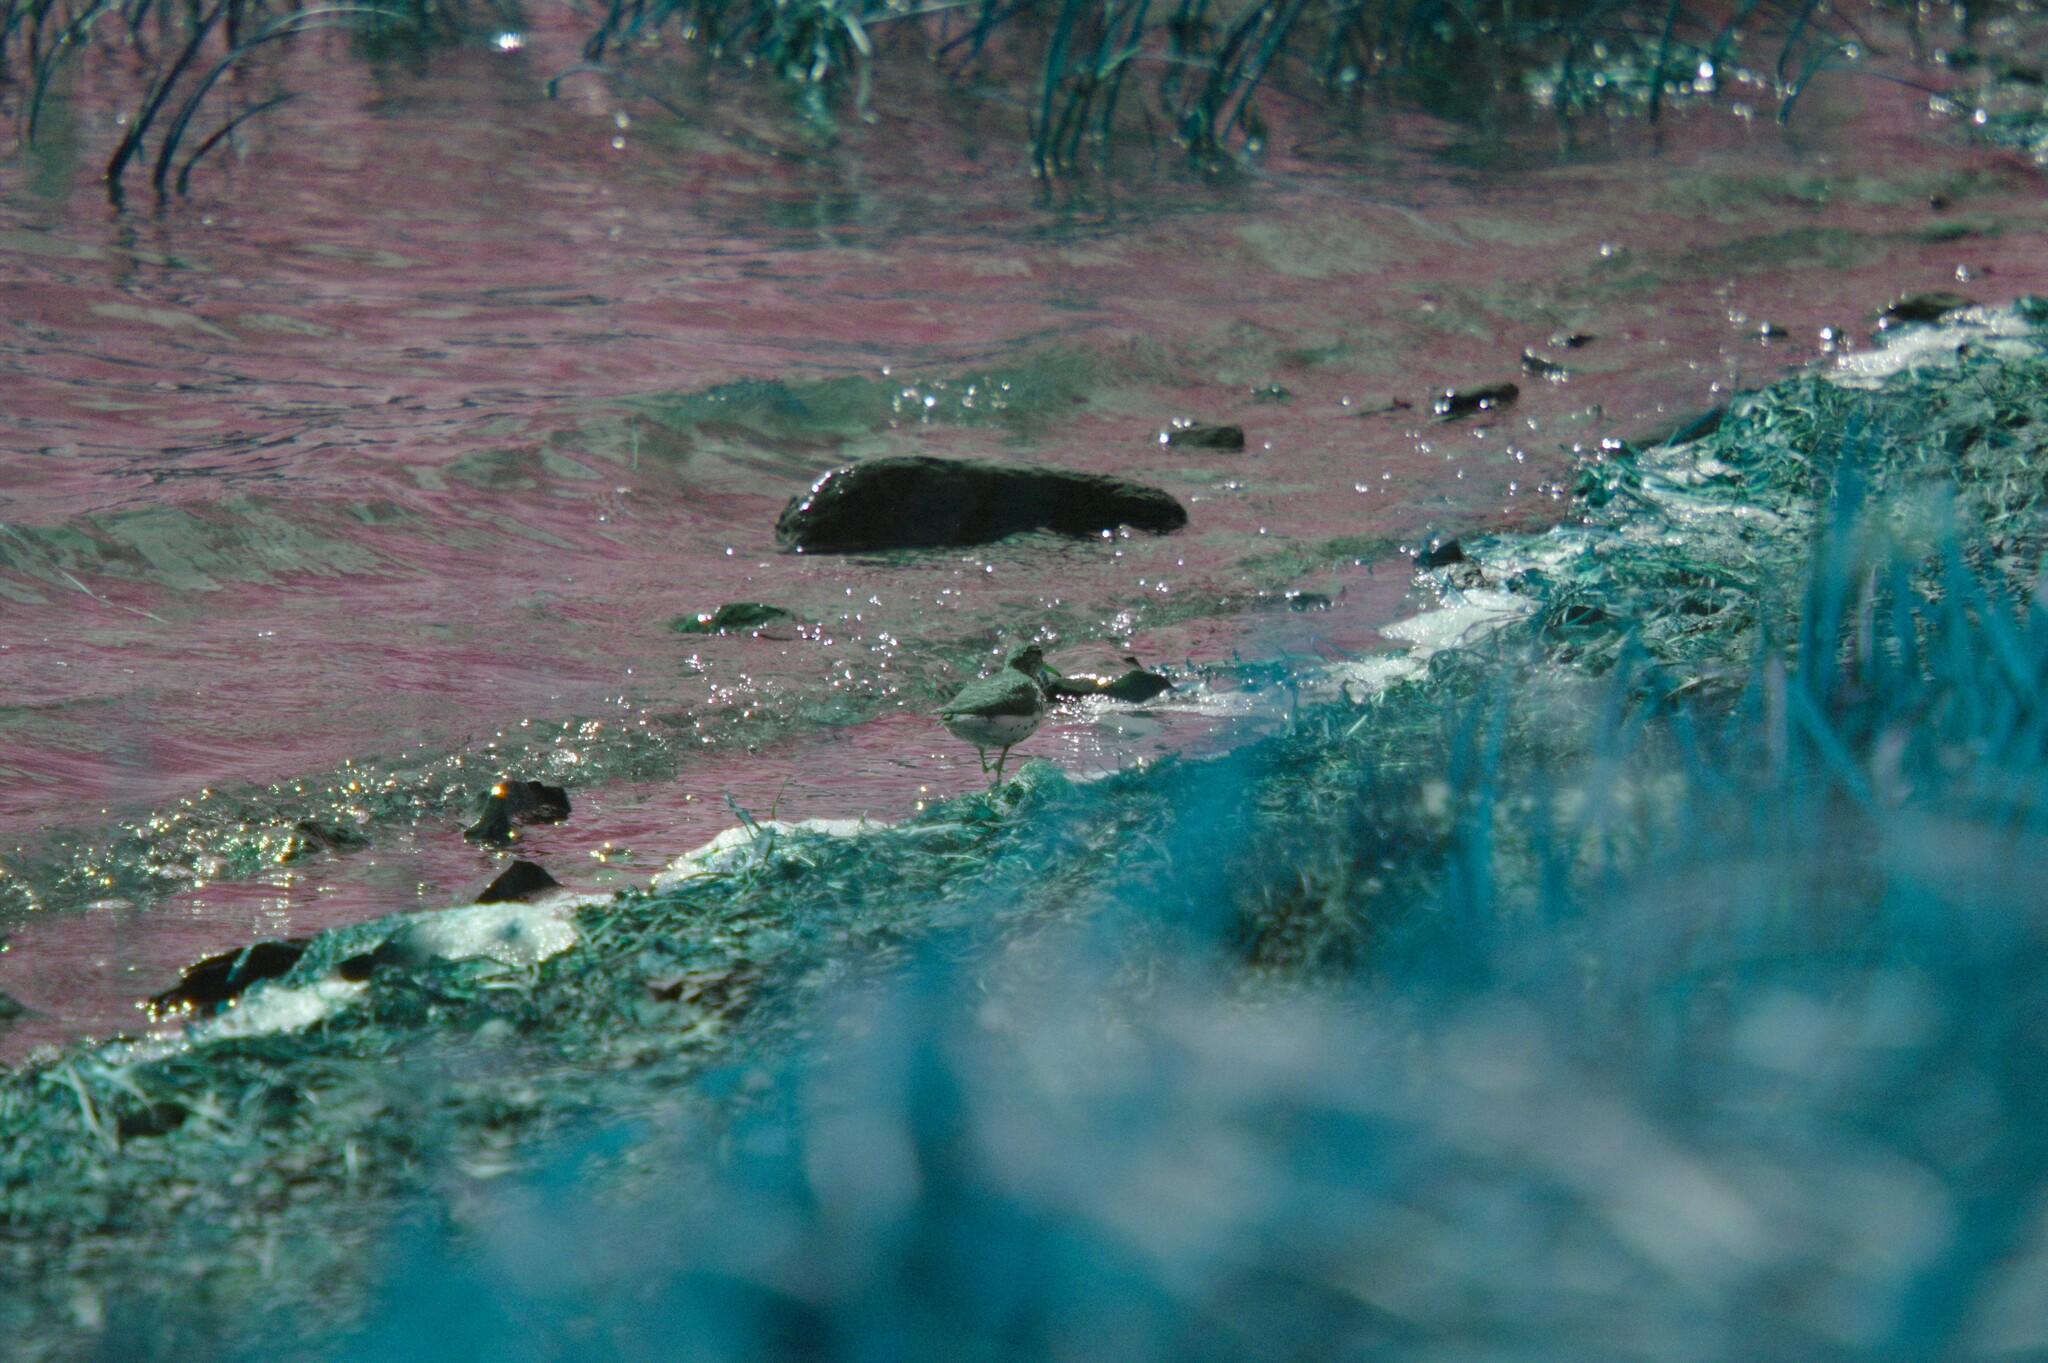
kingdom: Animalia
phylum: Chordata
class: Aves
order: Charadriiformes
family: Scolopacidae
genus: Actitis
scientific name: Actitis macularius
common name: Spotted sandpiper
